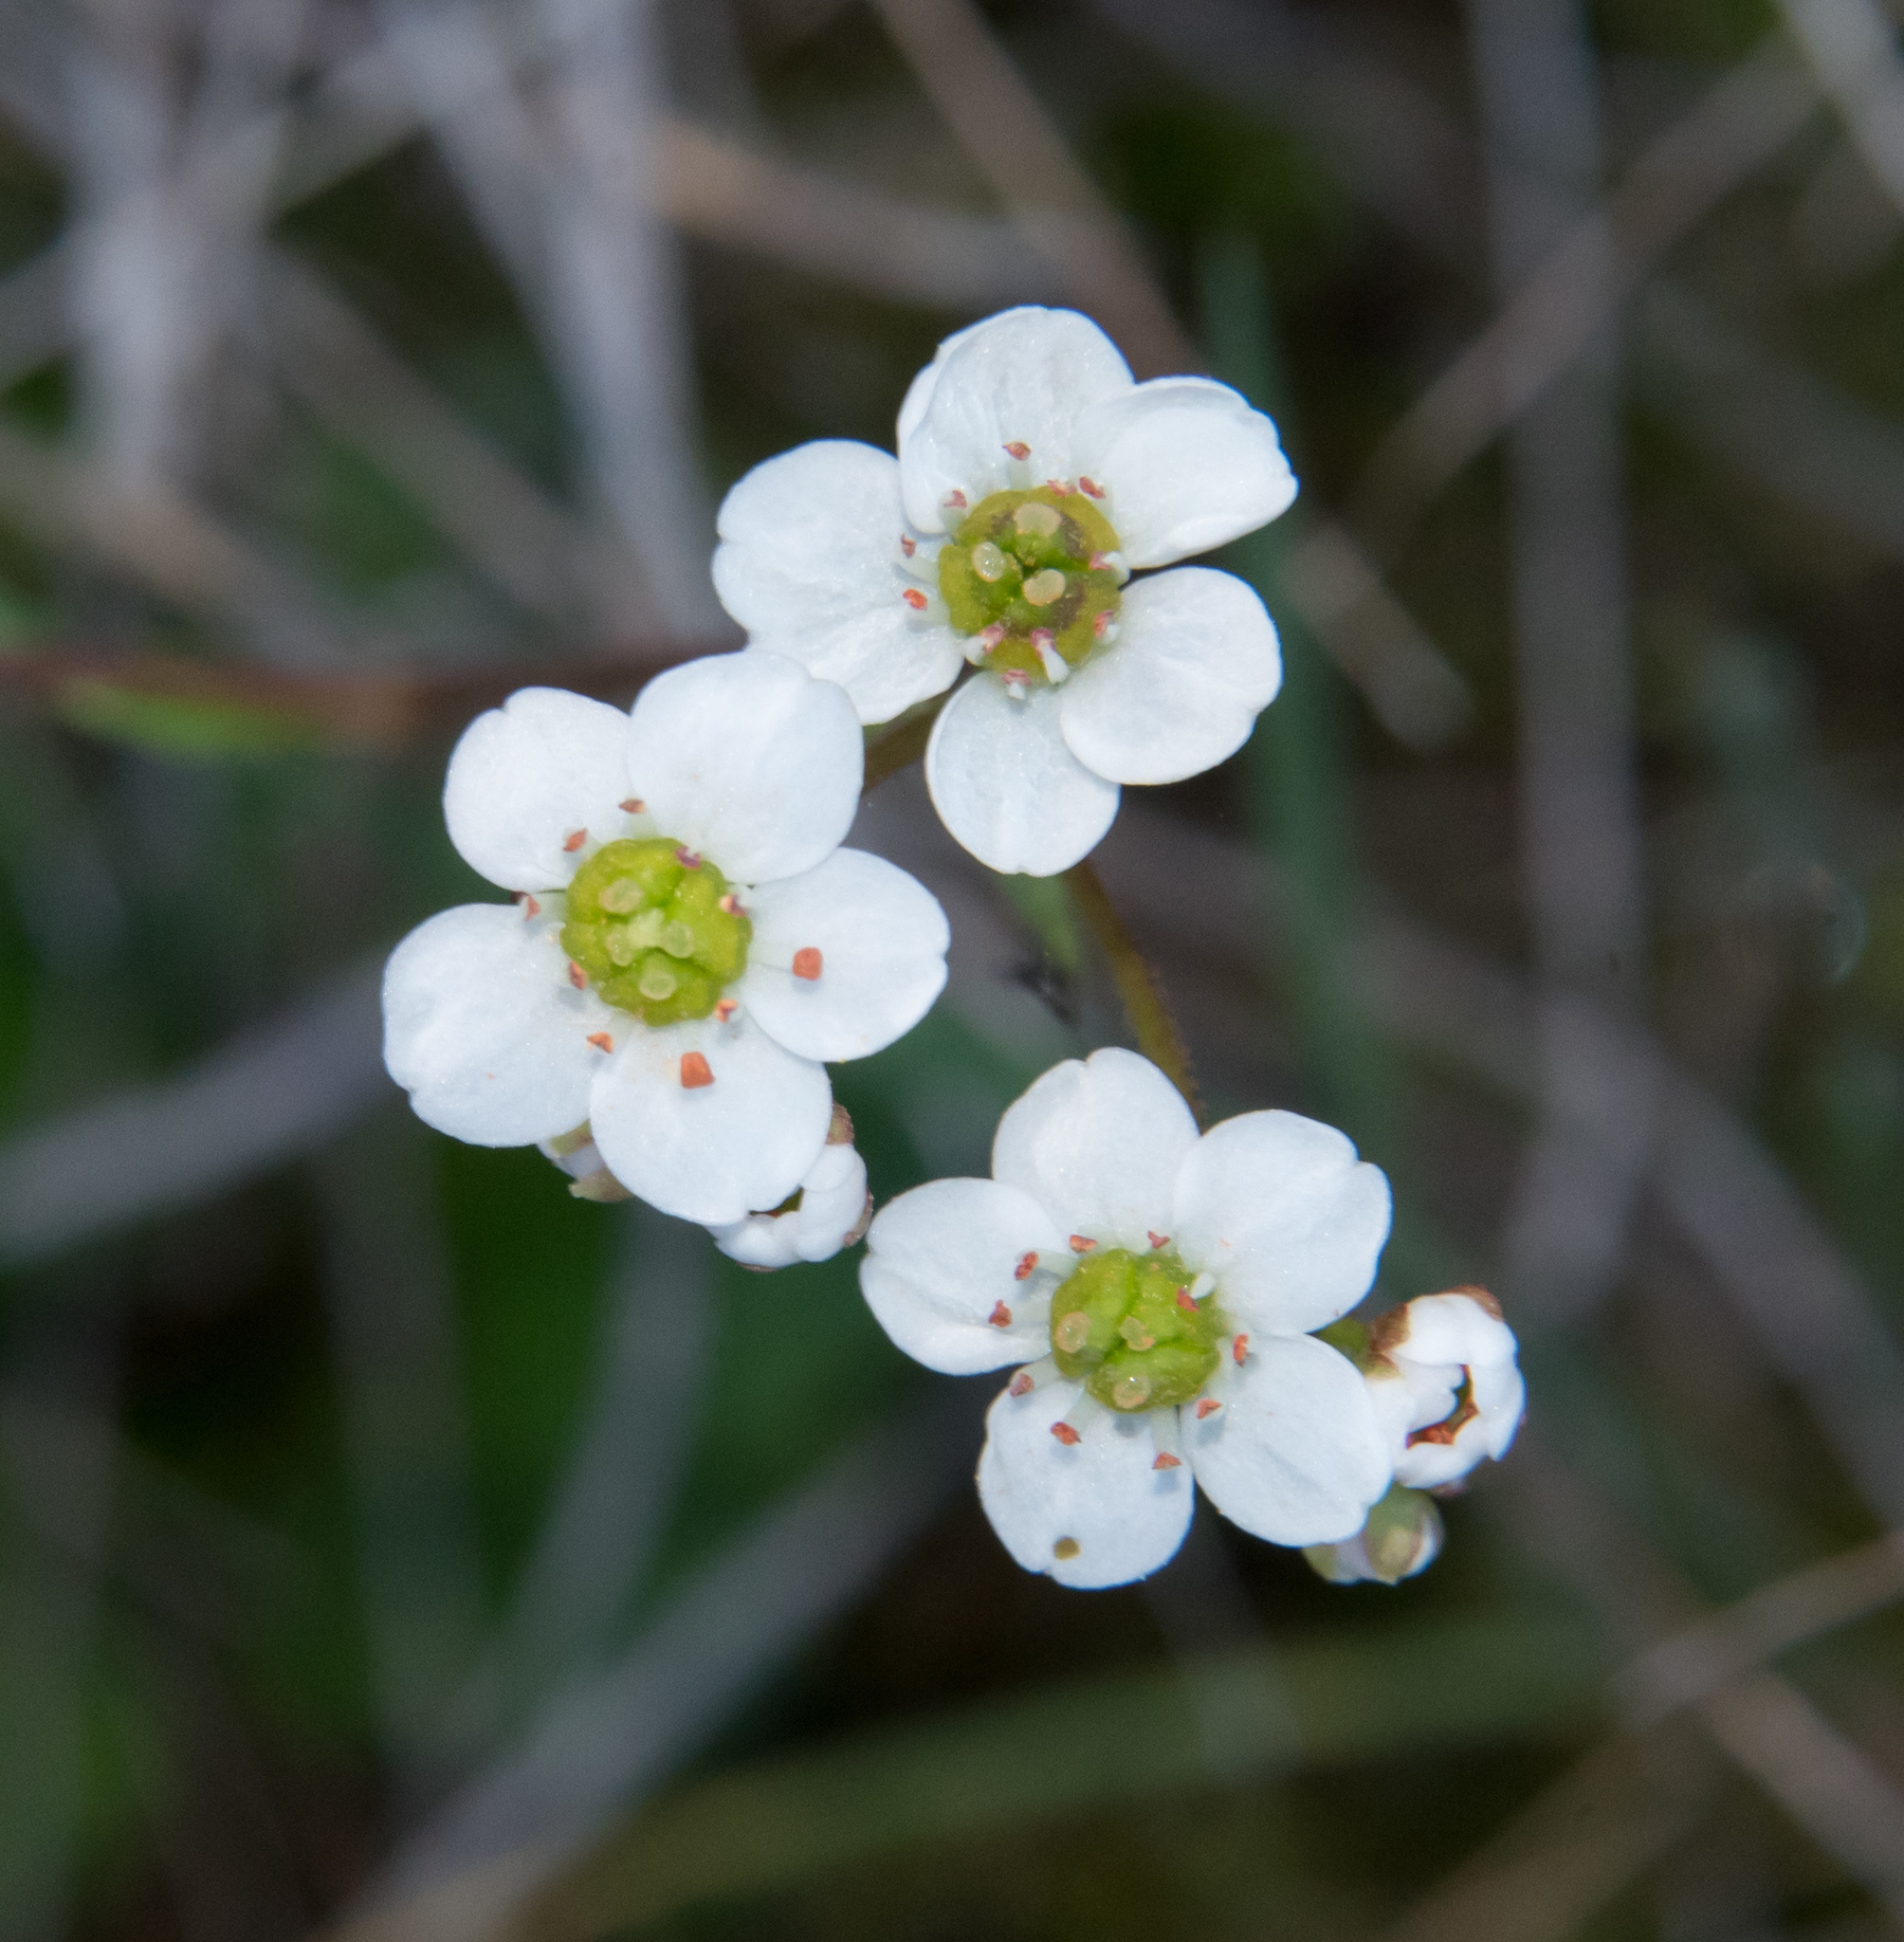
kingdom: Plantae
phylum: Tracheophyta
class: Magnoliopsida
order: Saxifragales
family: Saxifragaceae
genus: Micranthes
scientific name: Micranthes californica
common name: California saxifrage
